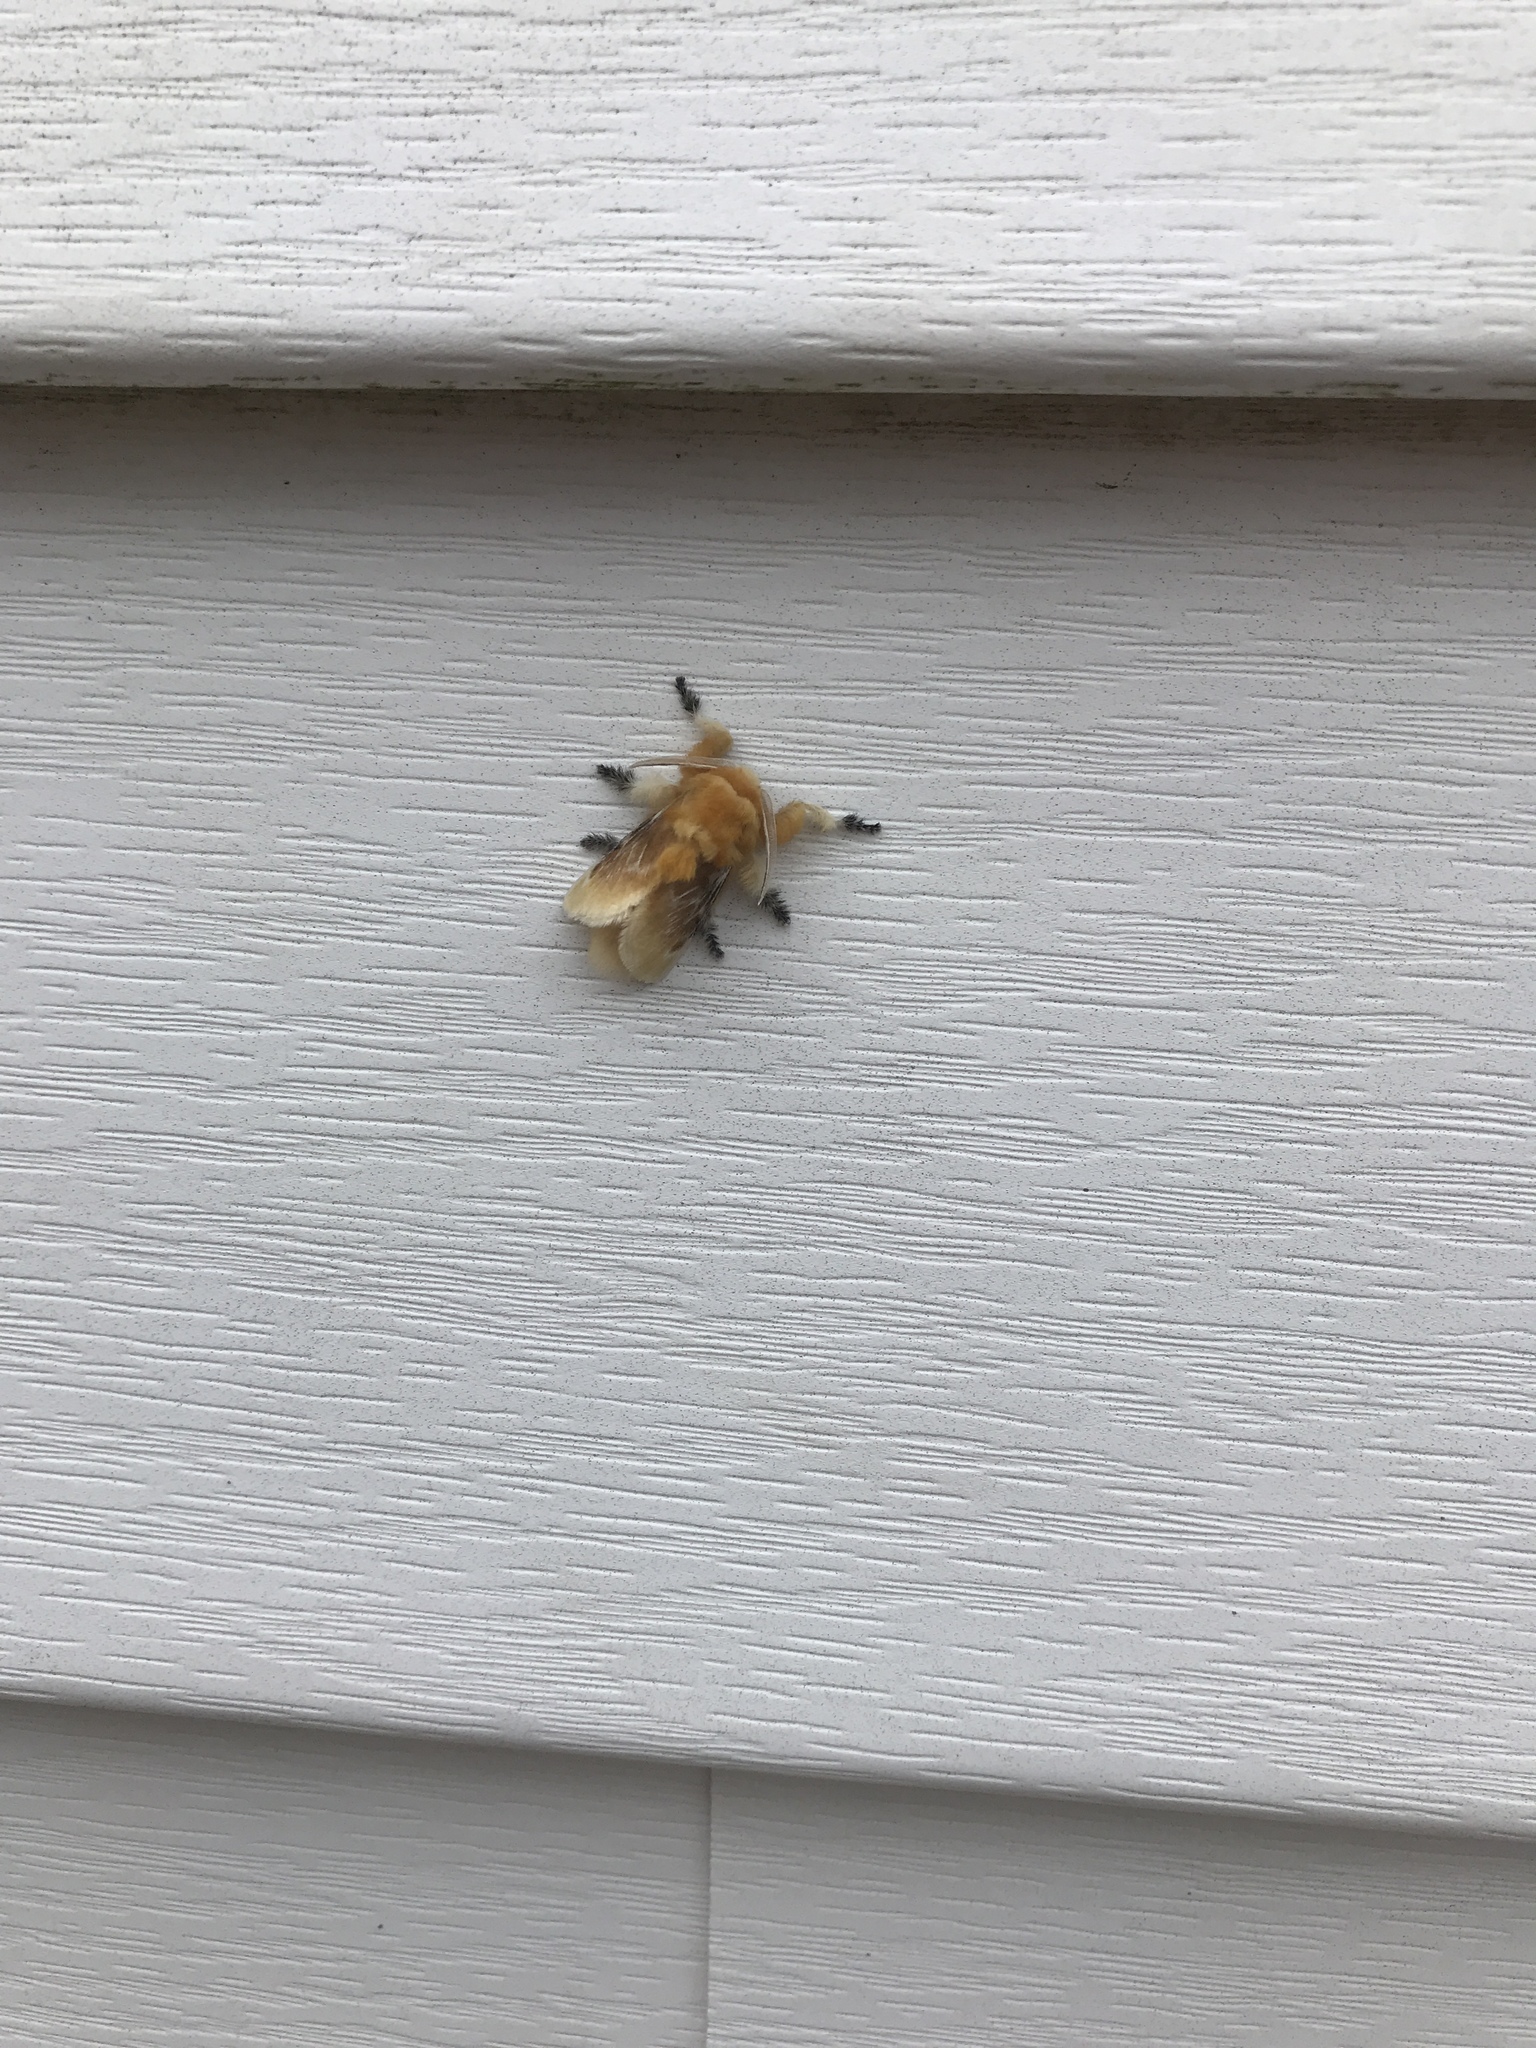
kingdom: Animalia
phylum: Arthropoda
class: Insecta
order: Lepidoptera
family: Megalopygidae
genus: Megalopyge
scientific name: Megalopyge opercularis
